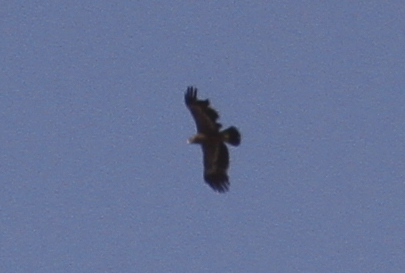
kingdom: Animalia
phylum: Chordata
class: Aves
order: Accipitriformes
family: Accipitridae
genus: Aquila
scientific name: Aquila nipalensis
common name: Steppe eagle
